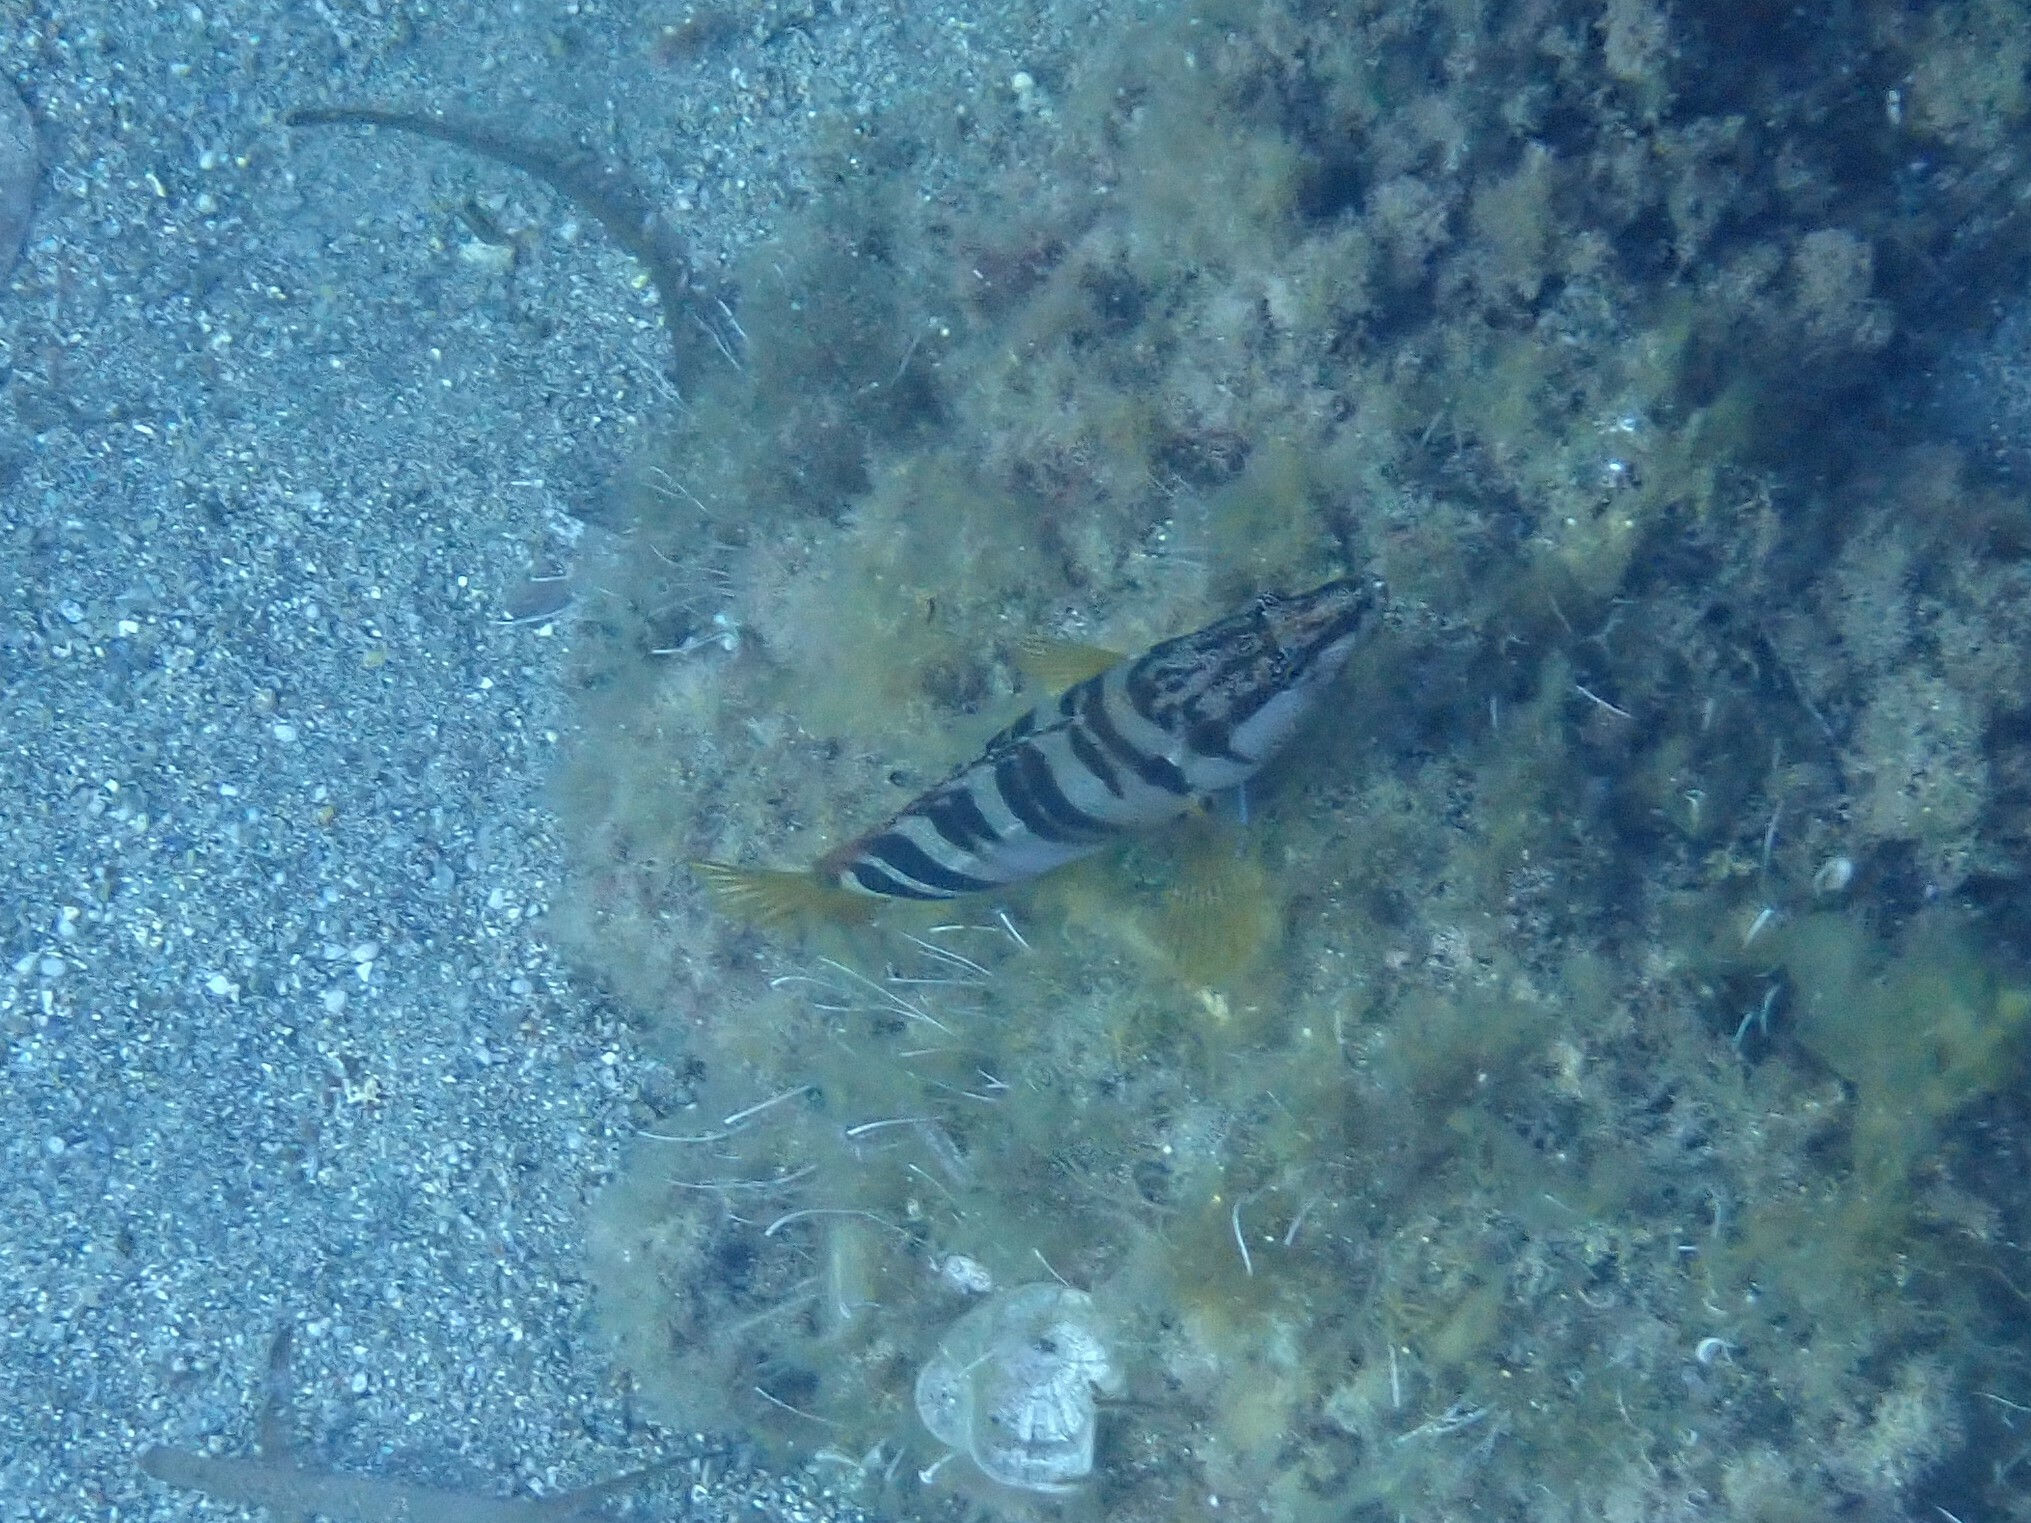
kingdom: Animalia
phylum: Chordata
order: Perciformes
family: Serranidae
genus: Serranus
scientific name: Serranus scriba
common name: Painted comber
